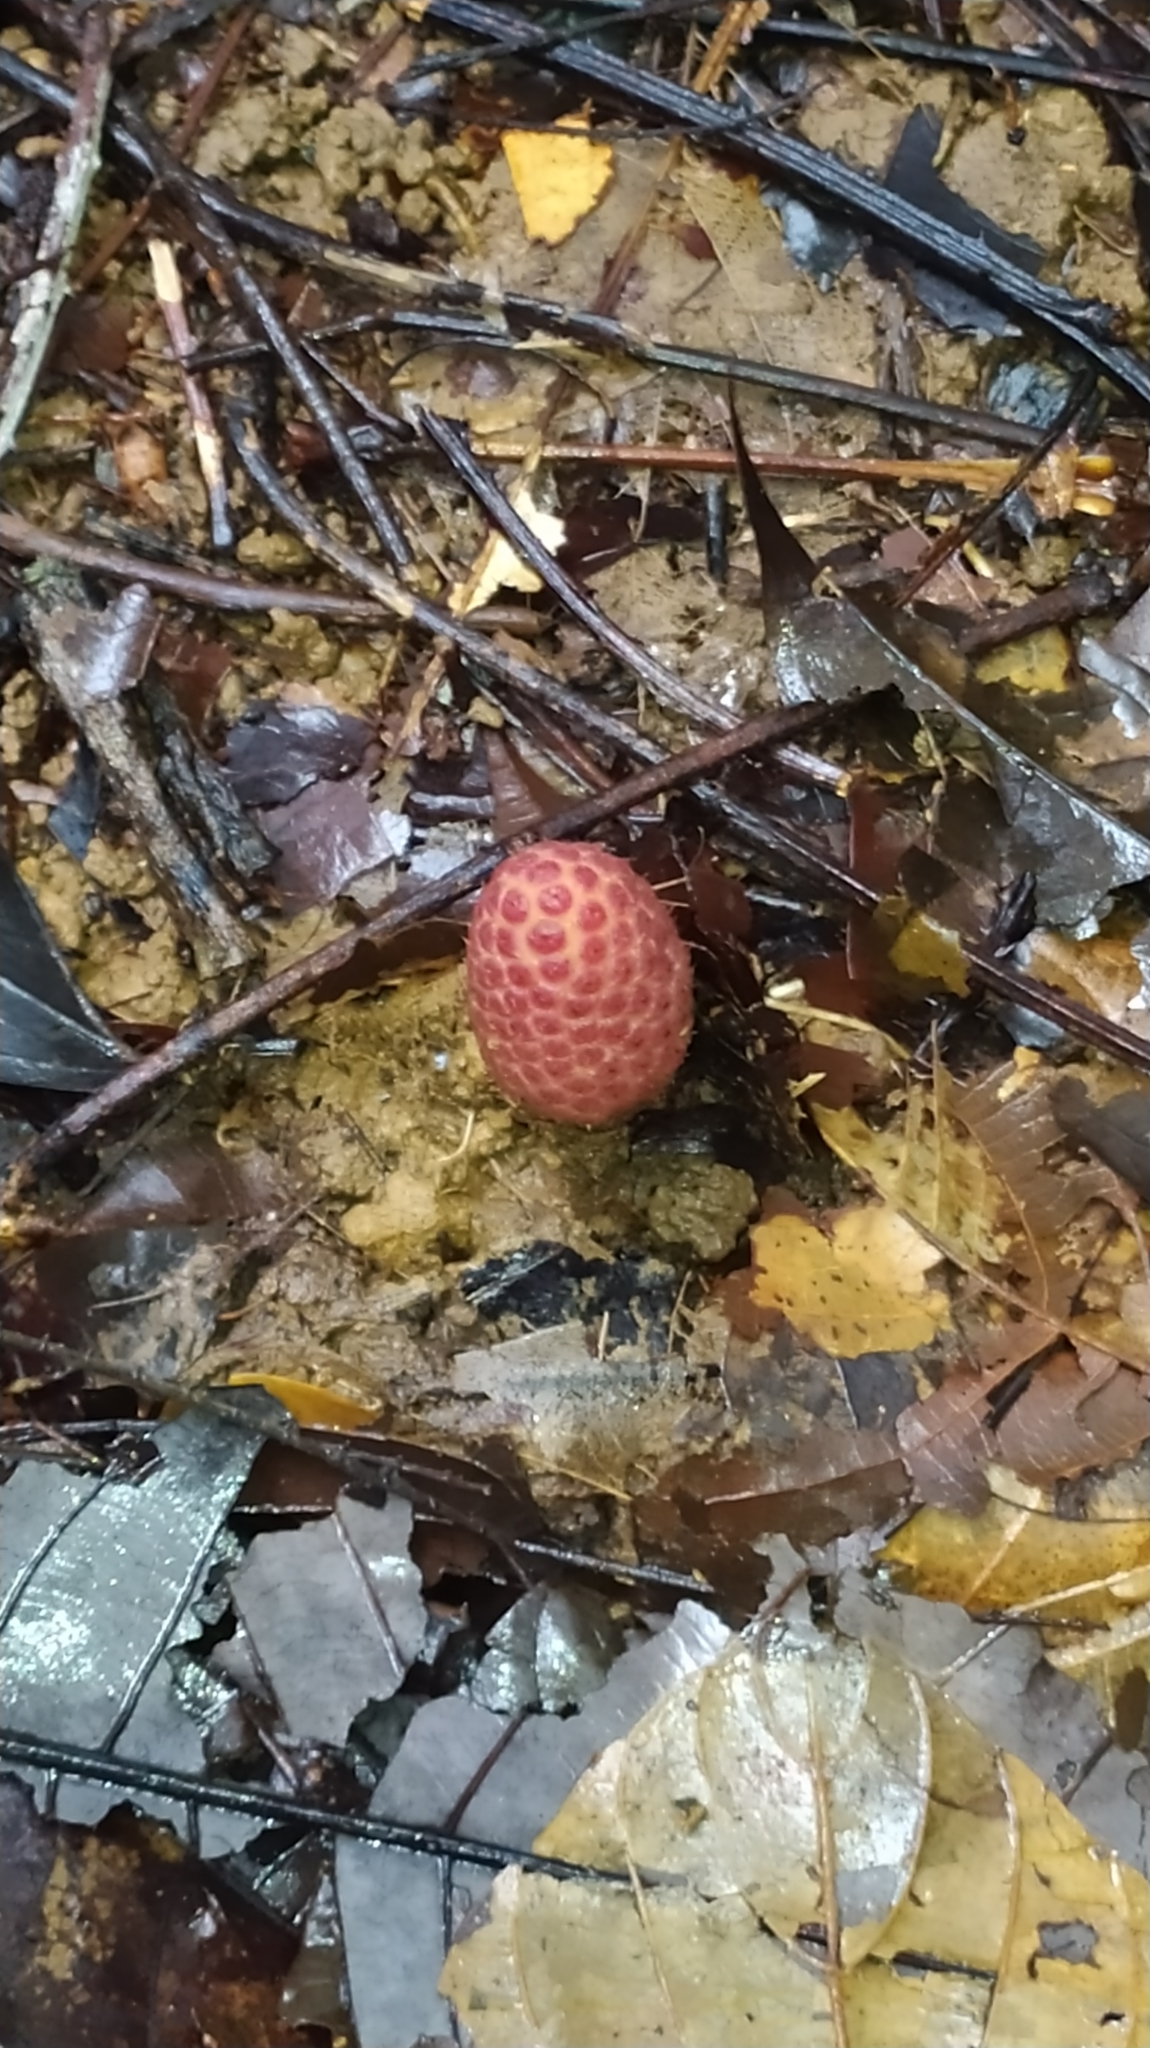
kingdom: Plantae
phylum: Tracheophyta
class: Magnoliopsida
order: Santalales
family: Balanophoraceae
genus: Helosis
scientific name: Helosis cayennensis
